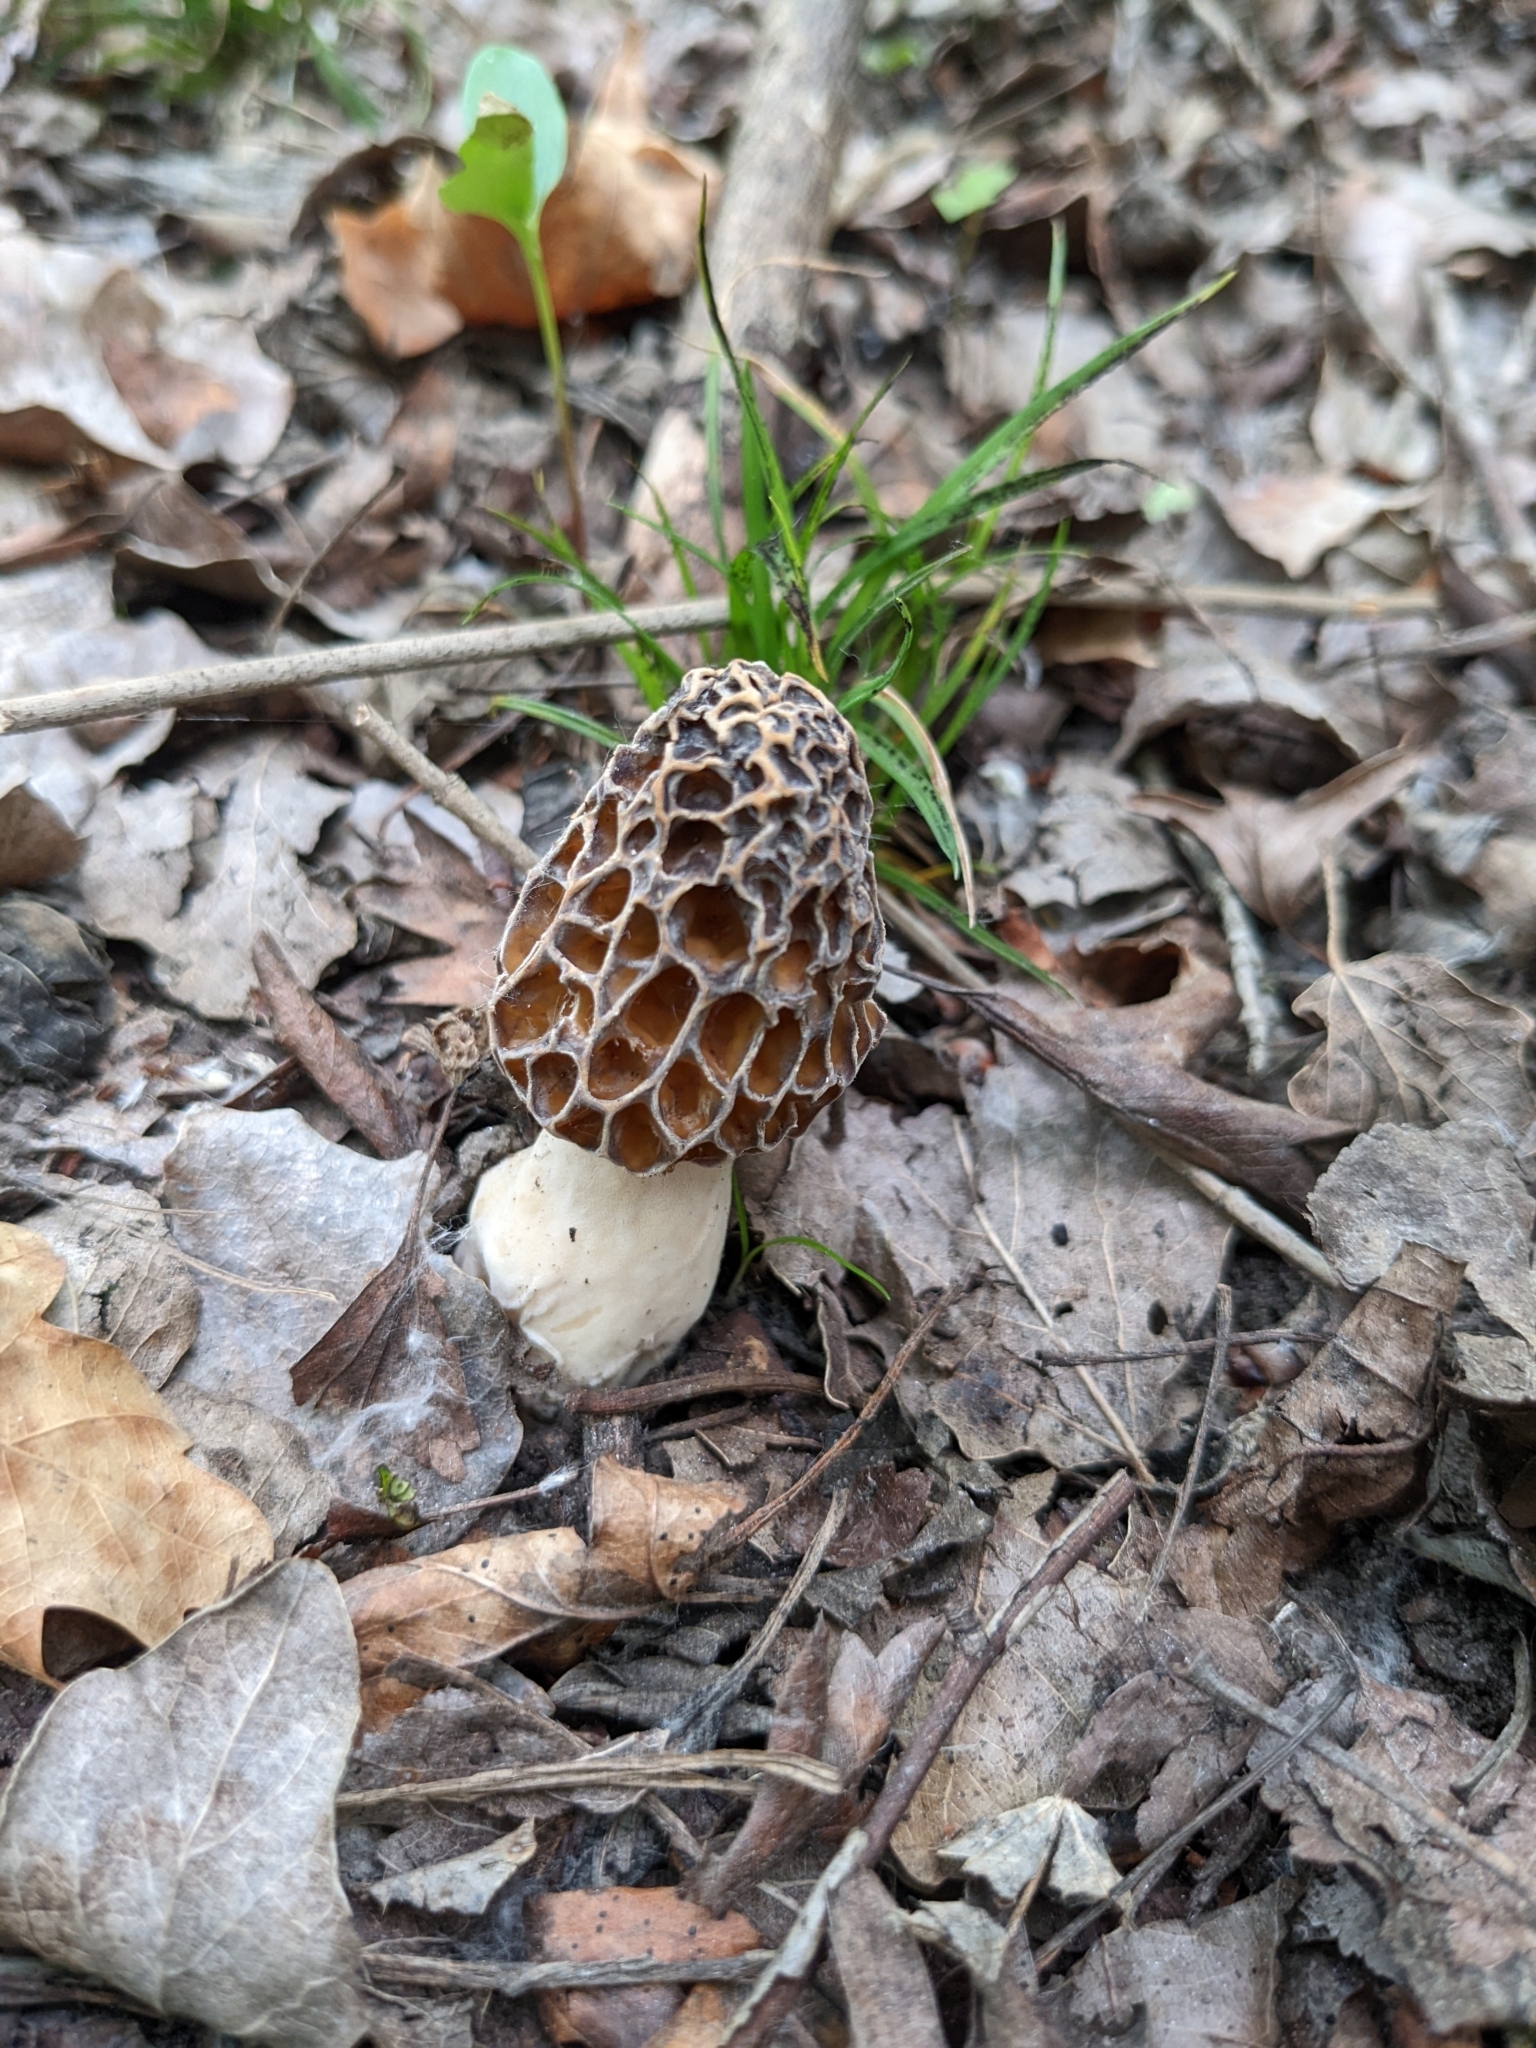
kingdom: Fungi
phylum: Ascomycota
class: Pezizomycetes
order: Pezizales
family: Morchellaceae
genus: Morchella
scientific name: Morchella esculenta
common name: Morel
